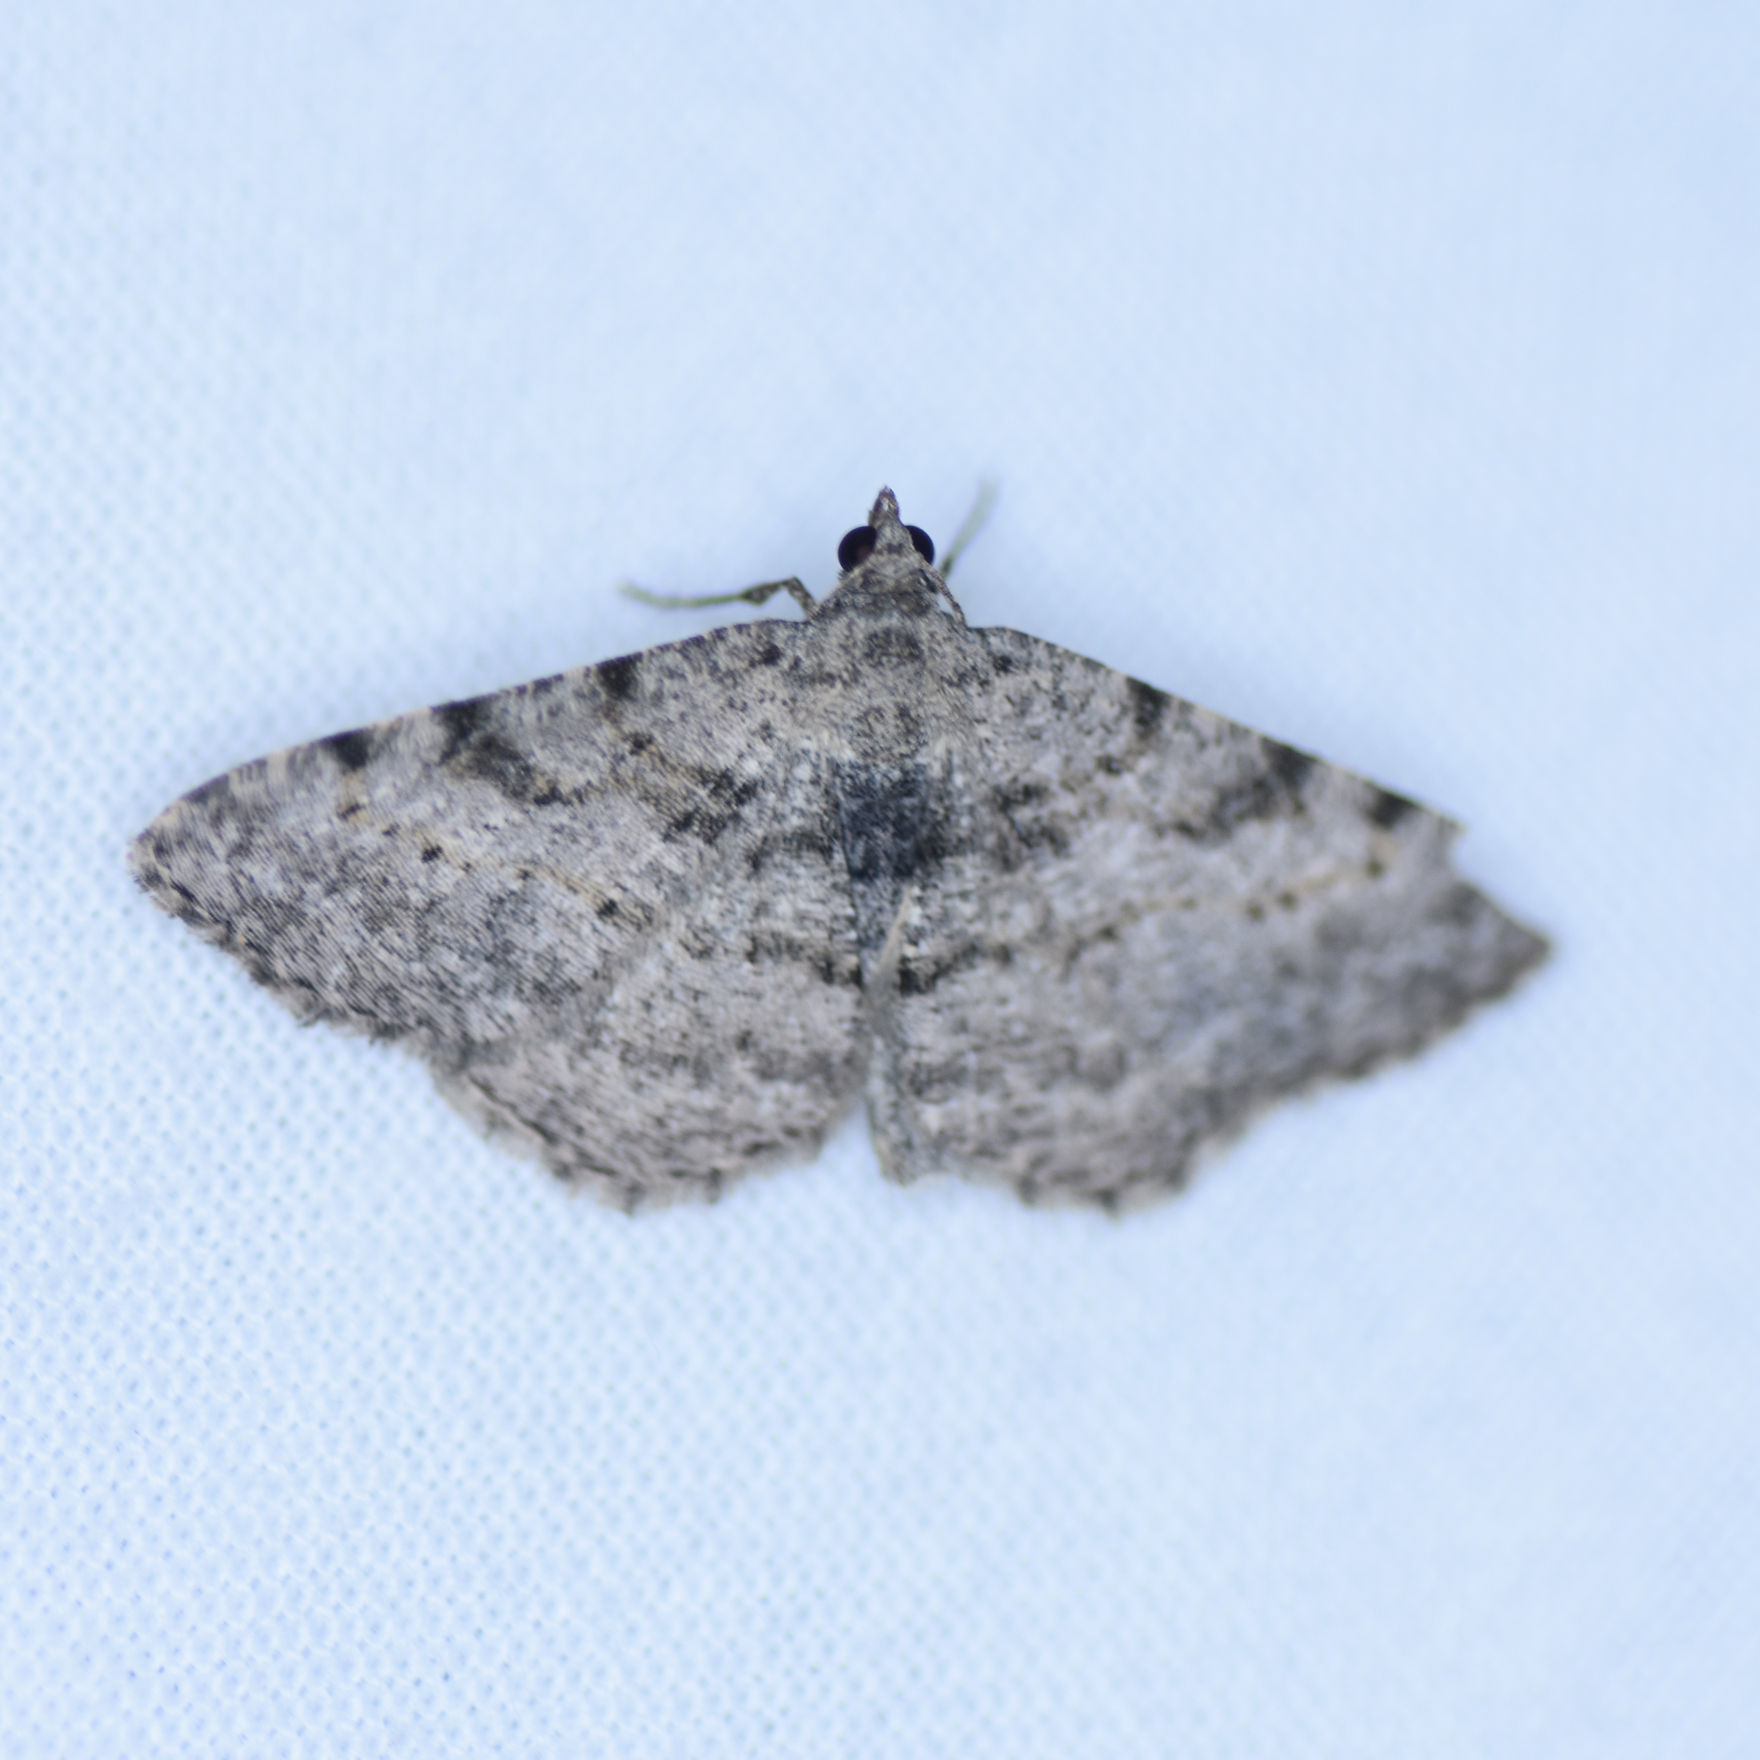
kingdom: Animalia
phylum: Arthropoda
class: Insecta
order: Lepidoptera
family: Geometridae
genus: Digrammia
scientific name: Digrammia gnophosaria
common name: Hollow-spotted angle
